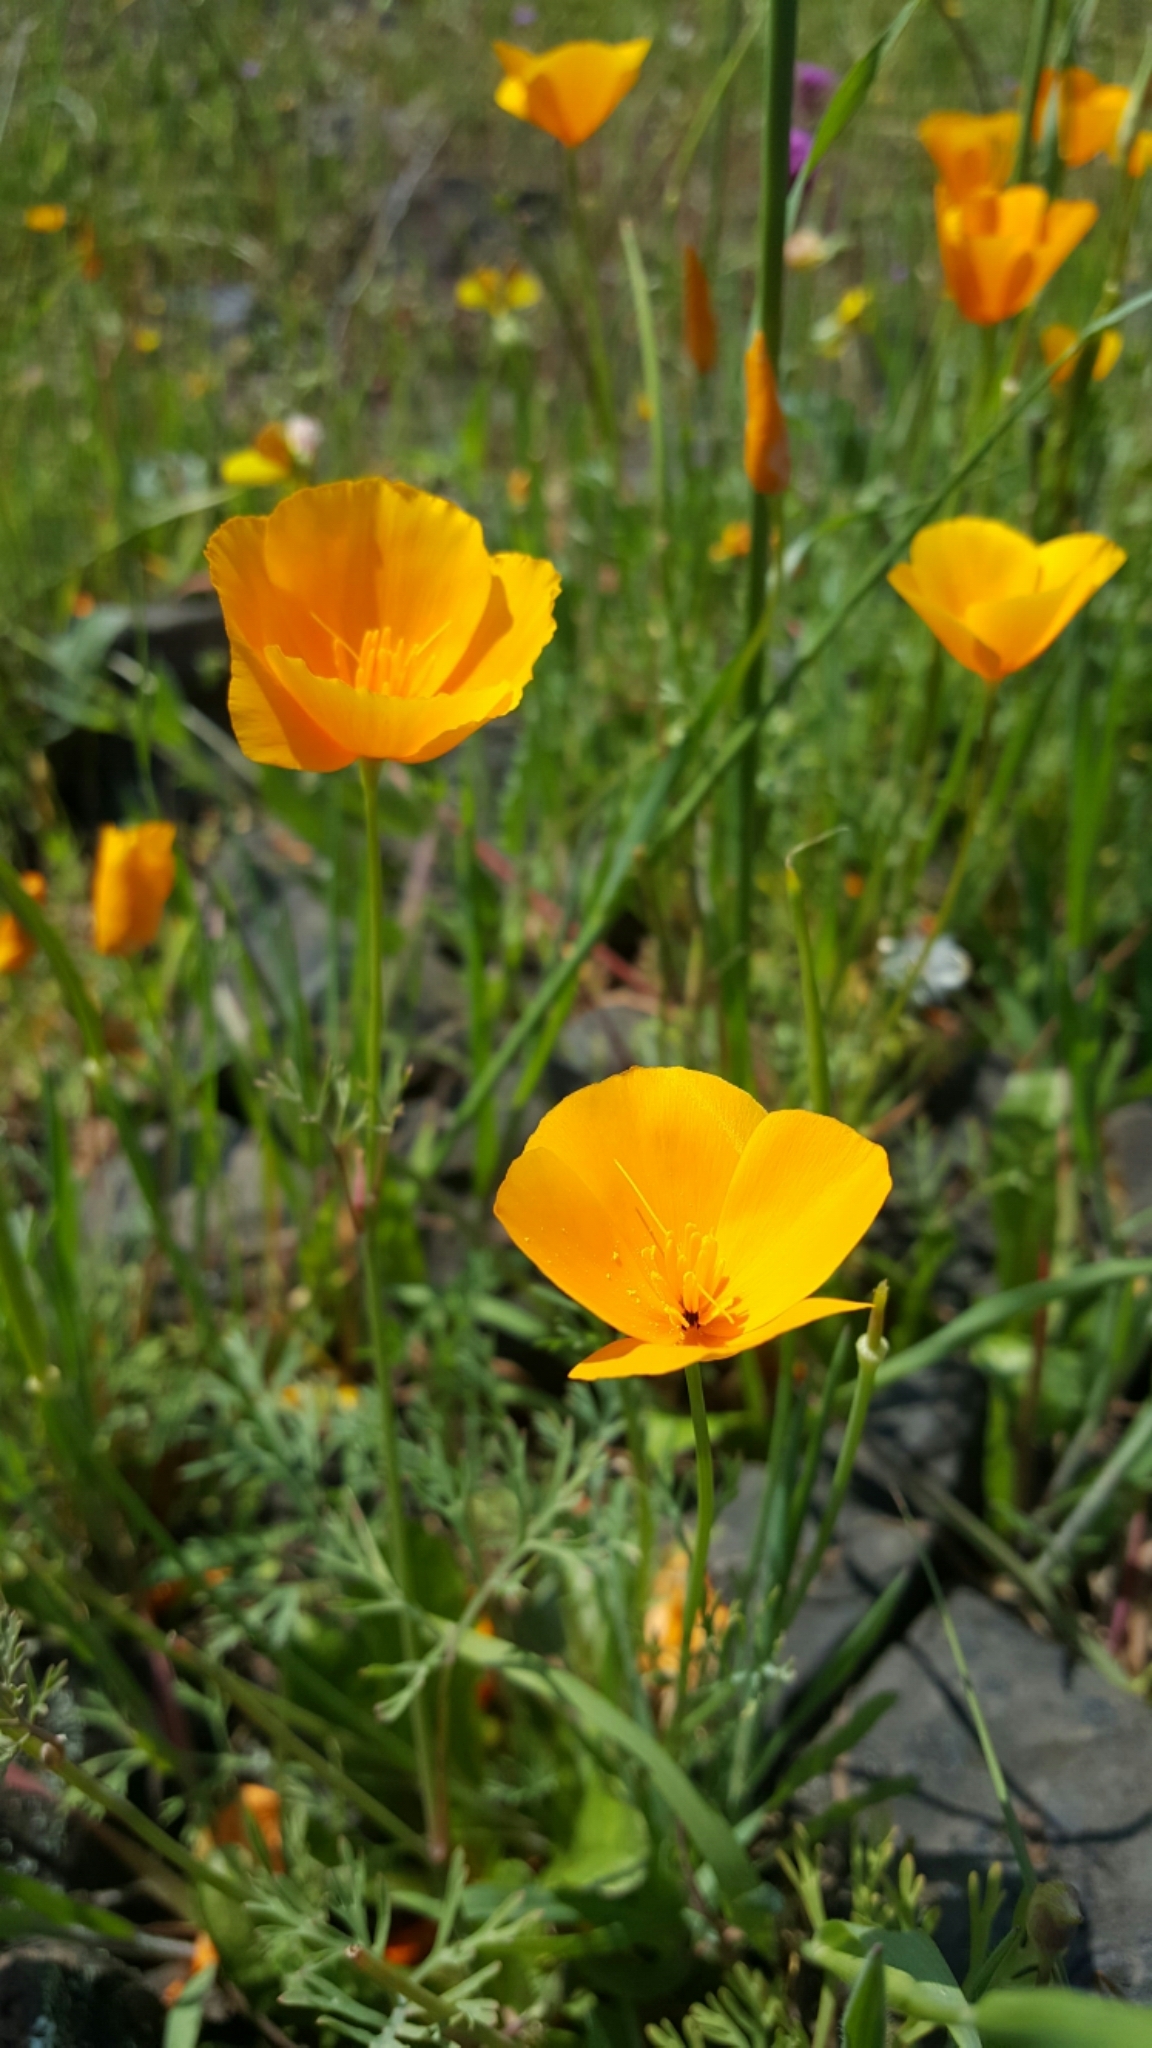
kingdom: Plantae
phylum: Tracheophyta
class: Magnoliopsida
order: Ranunculales
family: Papaveraceae
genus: Eschscholzia
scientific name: Eschscholzia caespitosa
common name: Tufted california-poppy
